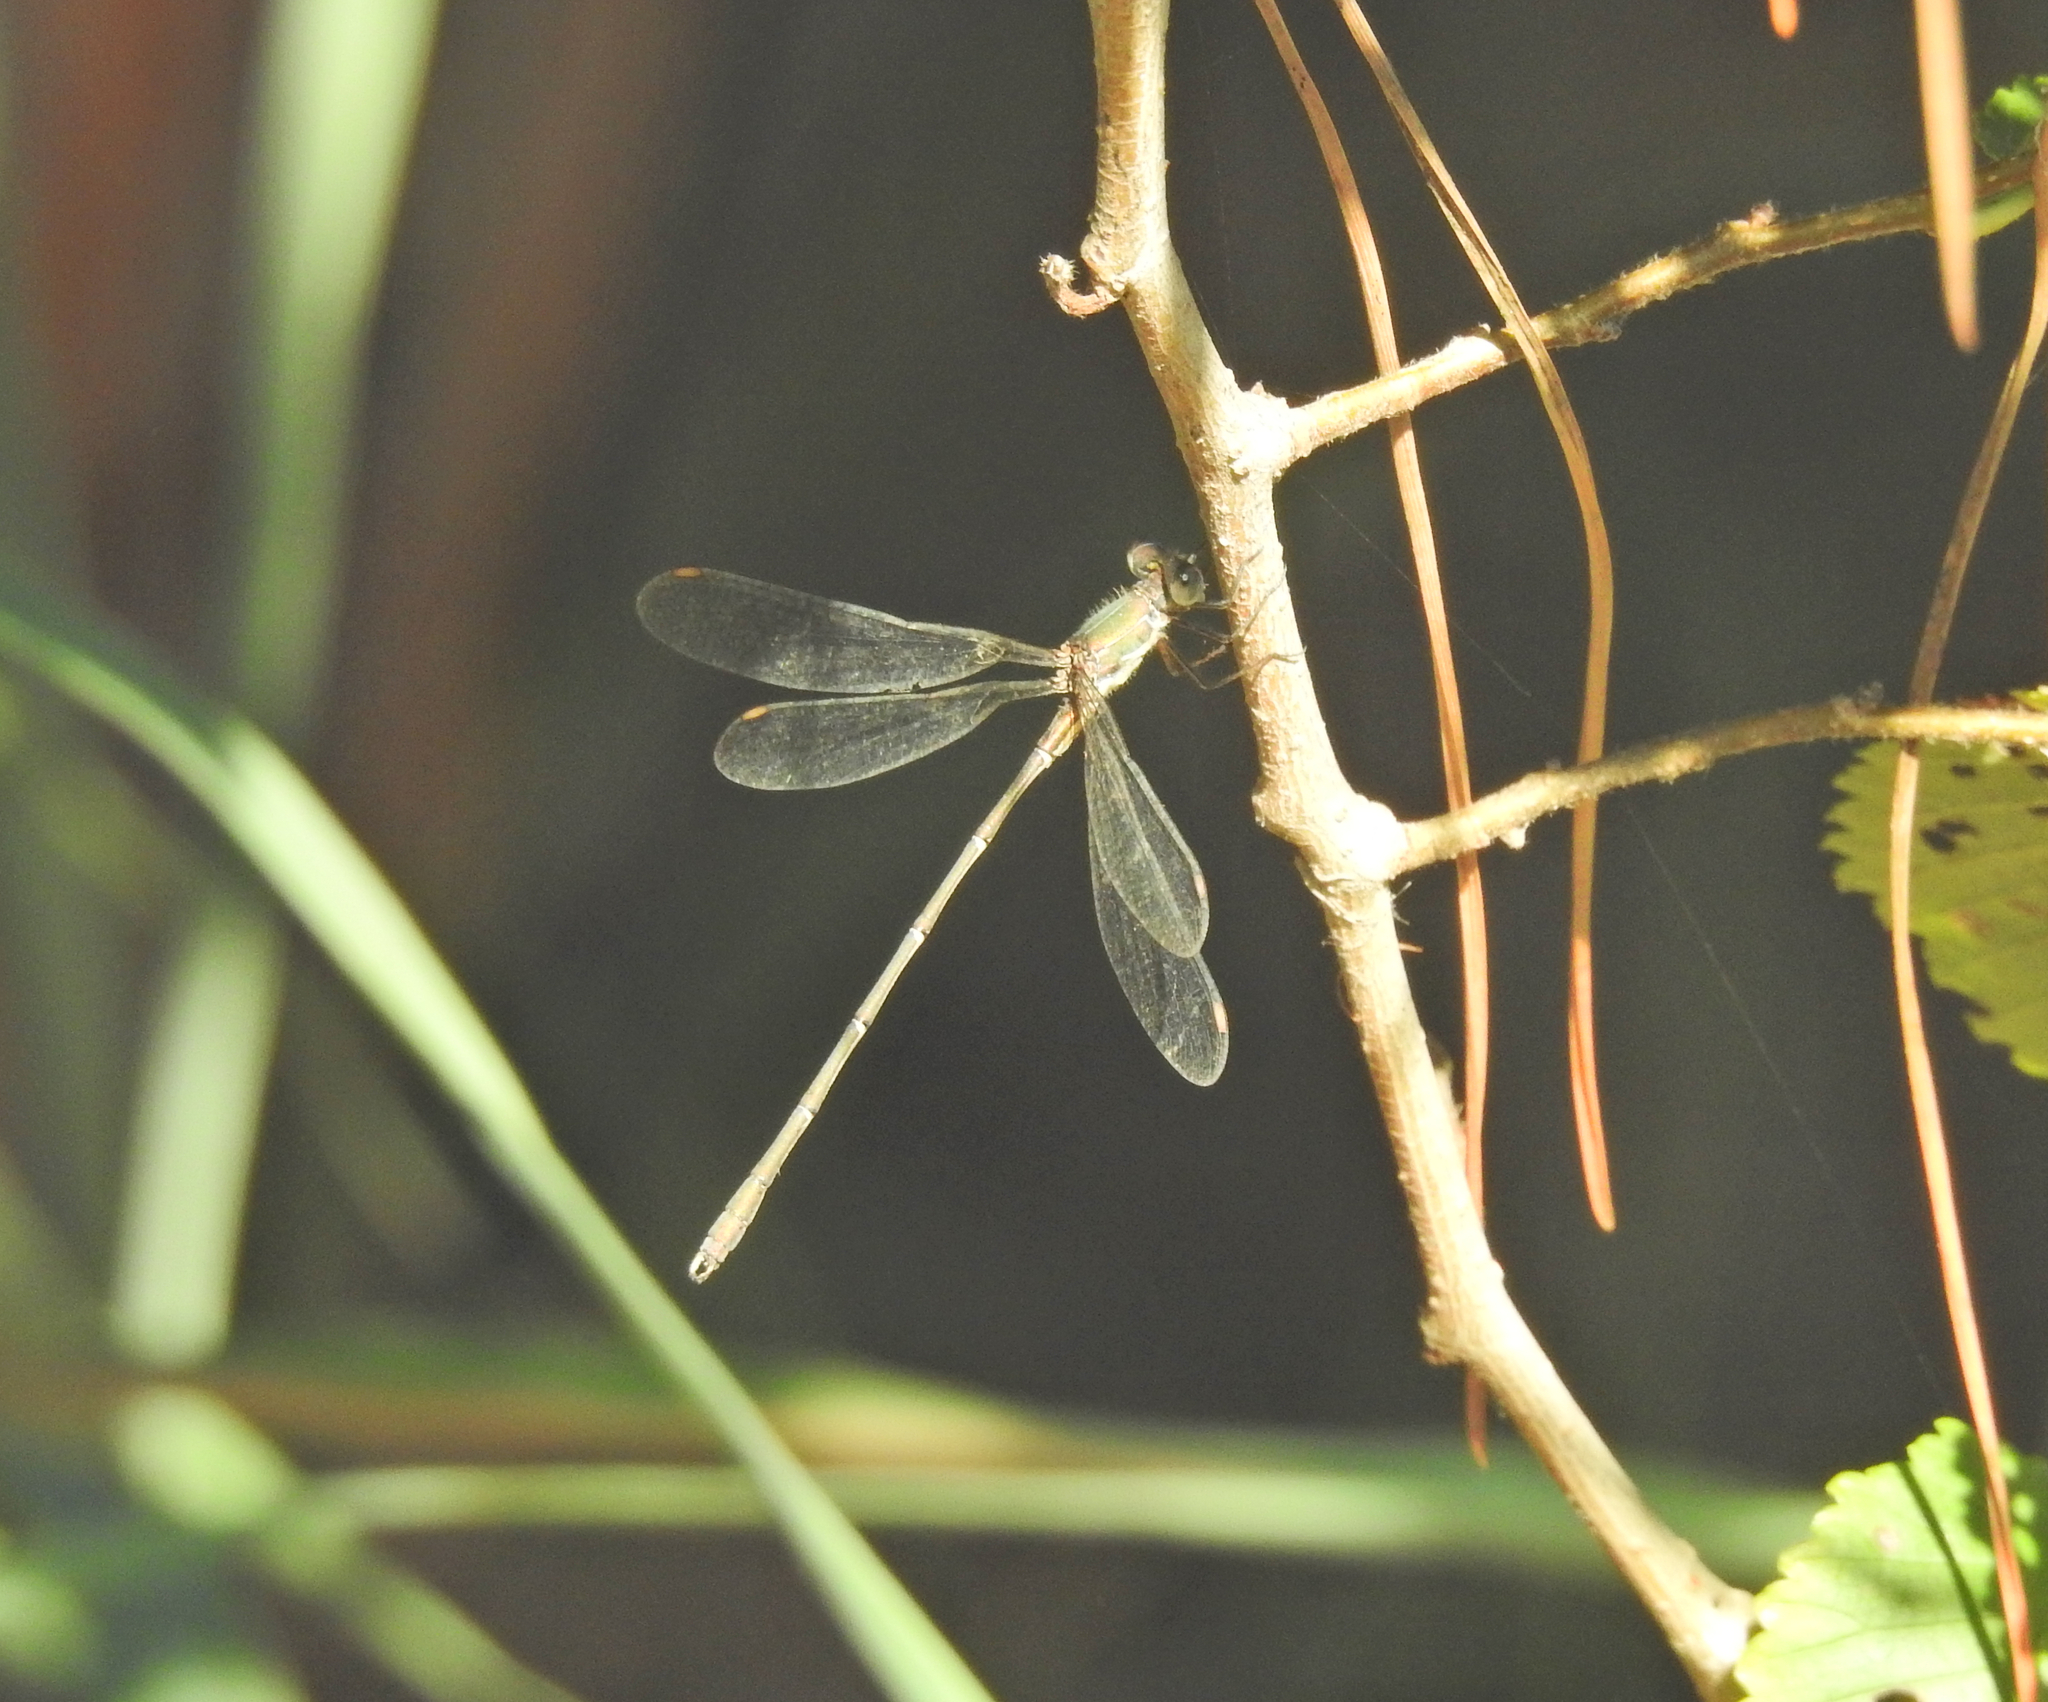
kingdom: Animalia
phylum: Arthropoda
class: Insecta
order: Odonata
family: Lestidae
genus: Chalcolestes
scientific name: Chalcolestes viridis
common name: Green emerald damselfly
